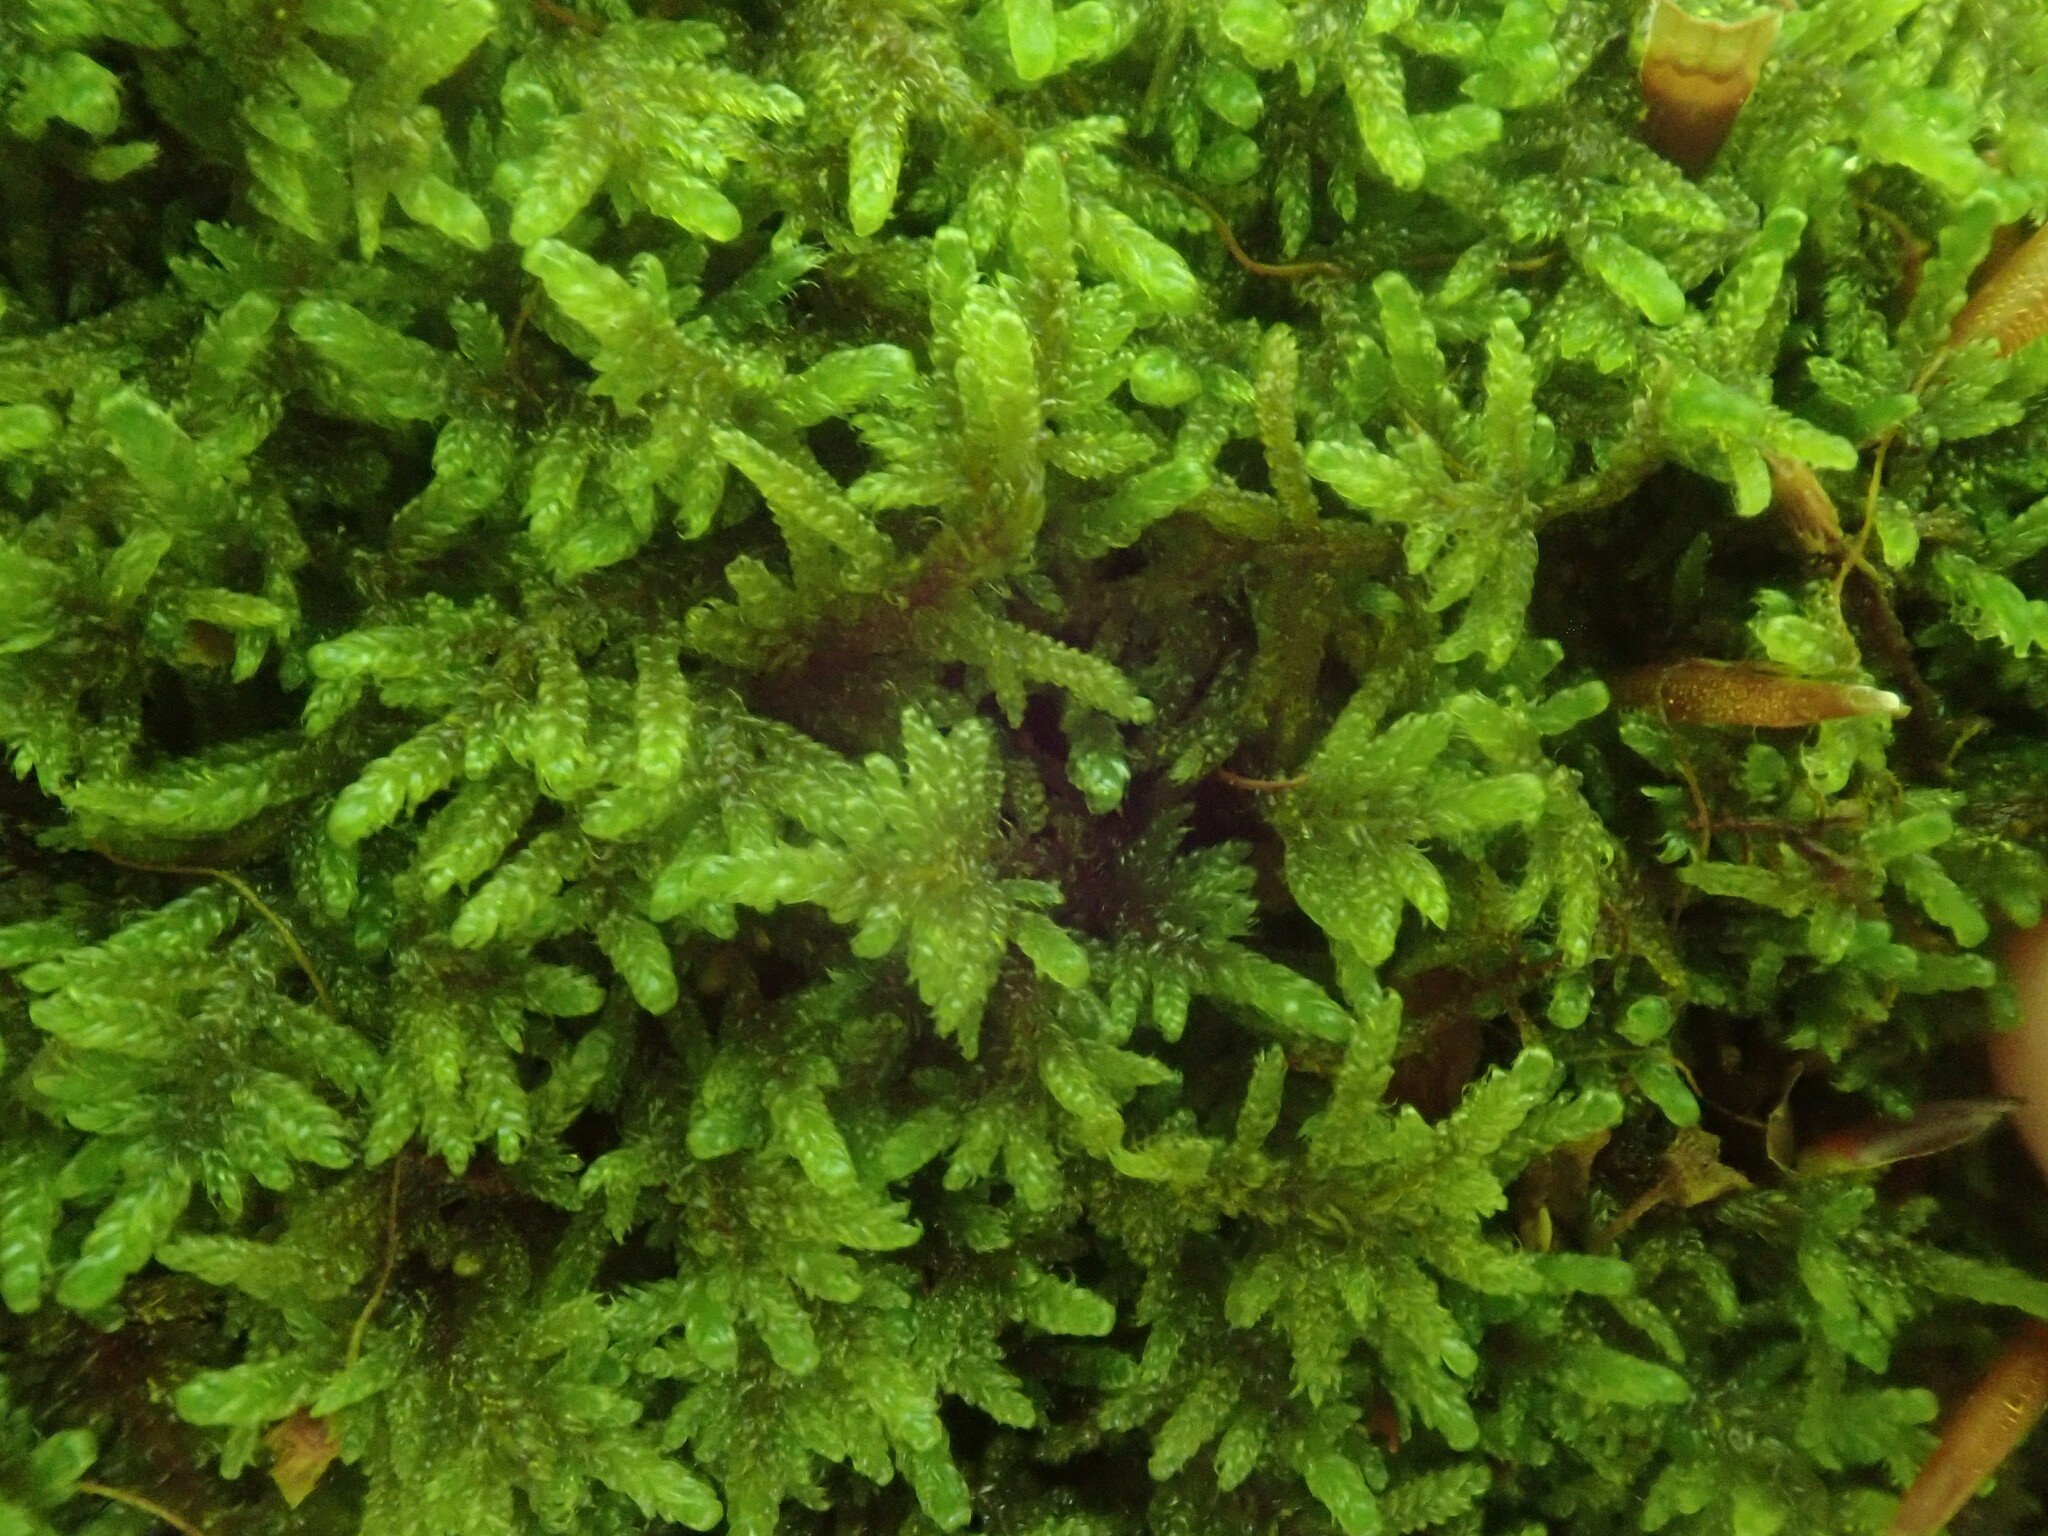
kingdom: Plantae
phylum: Bryophyta
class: Bryopsida
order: Hypnales
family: Callicladiaceae
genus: Callicladium
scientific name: Callicladium imponens
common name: Brocade moss
